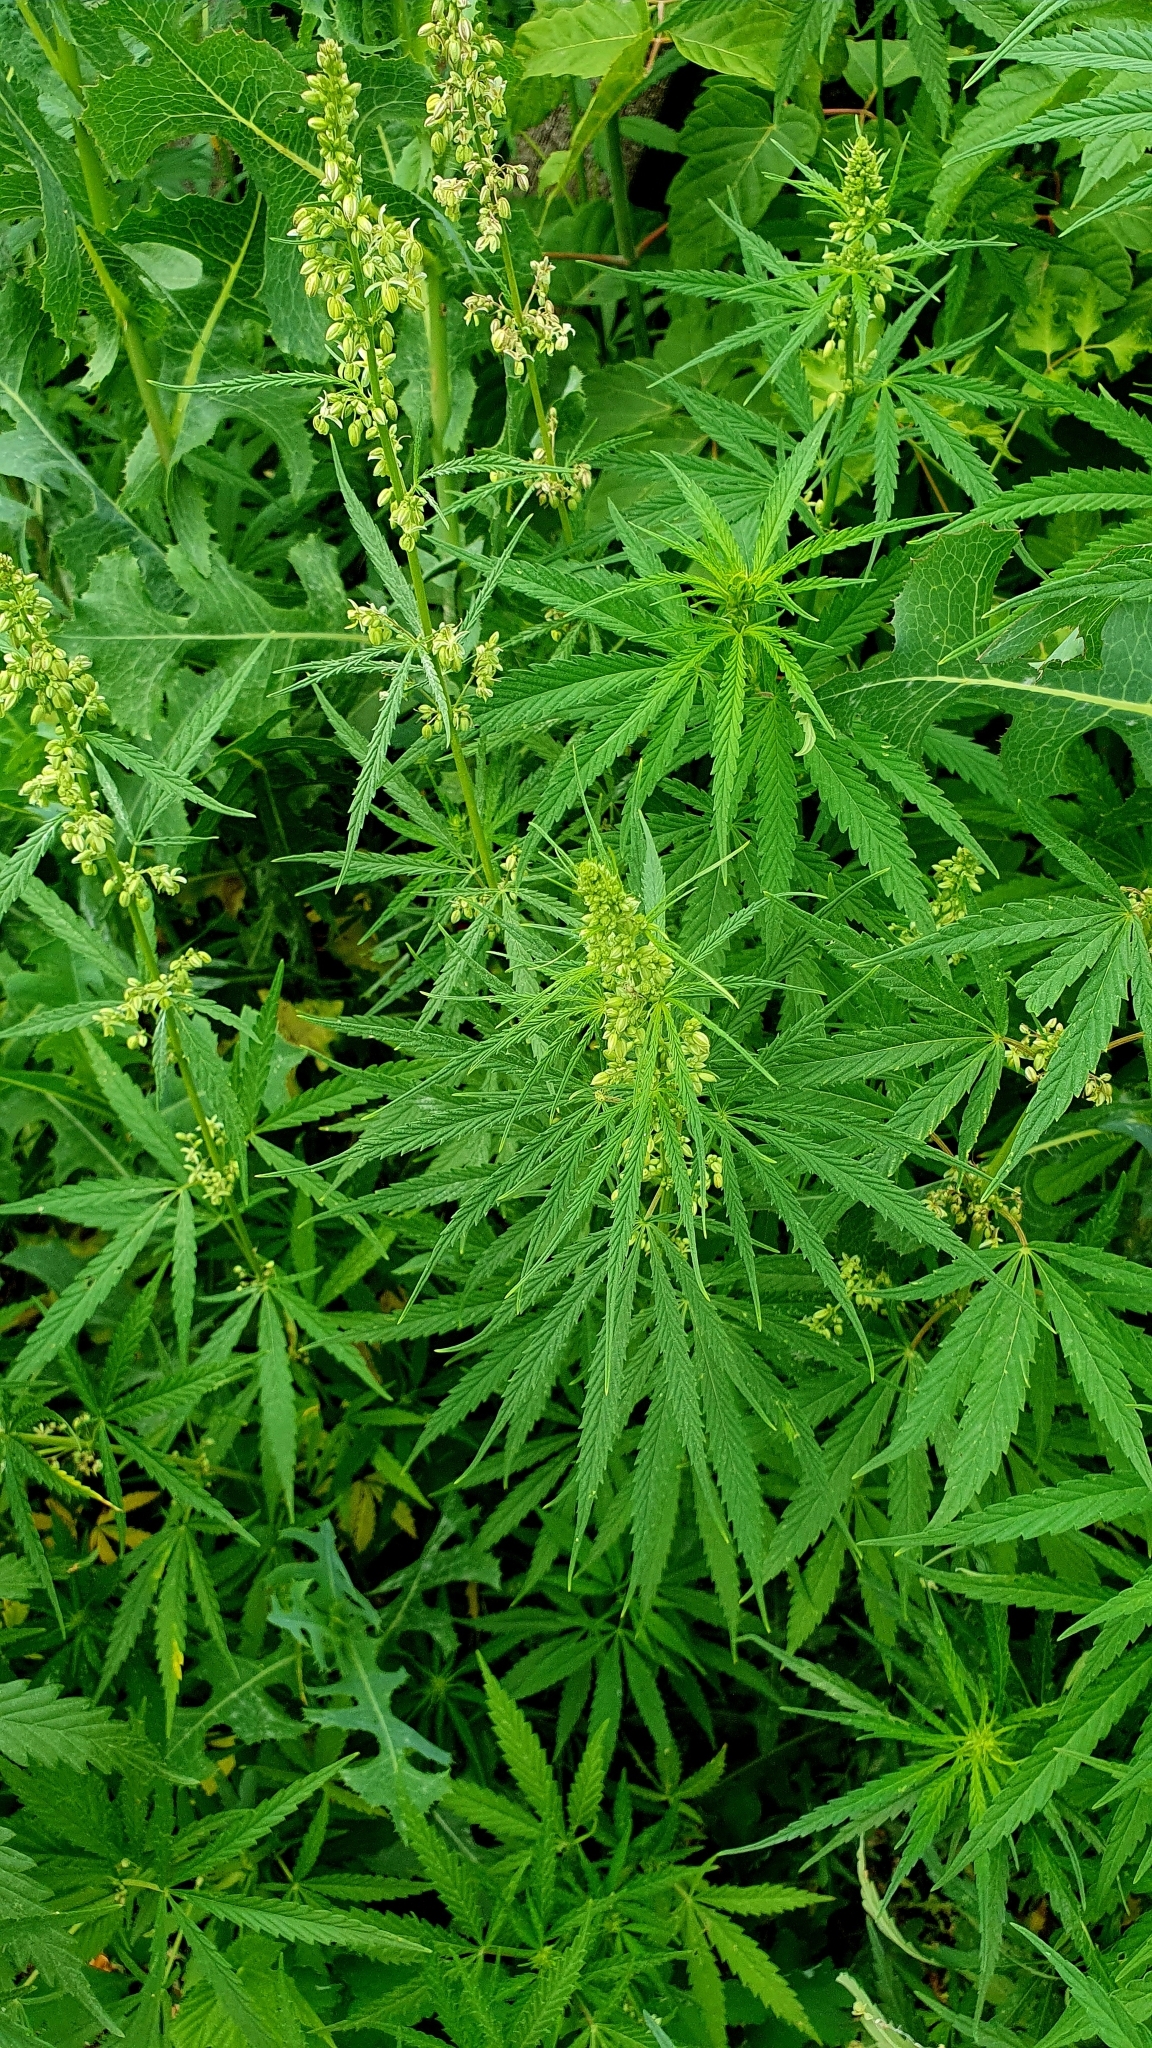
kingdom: Plantae
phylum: Tracheophyta
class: Magnoliopsida
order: Rosales
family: Cannabaceae
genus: Cannabis
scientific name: Cannabis sativa
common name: Hemp
